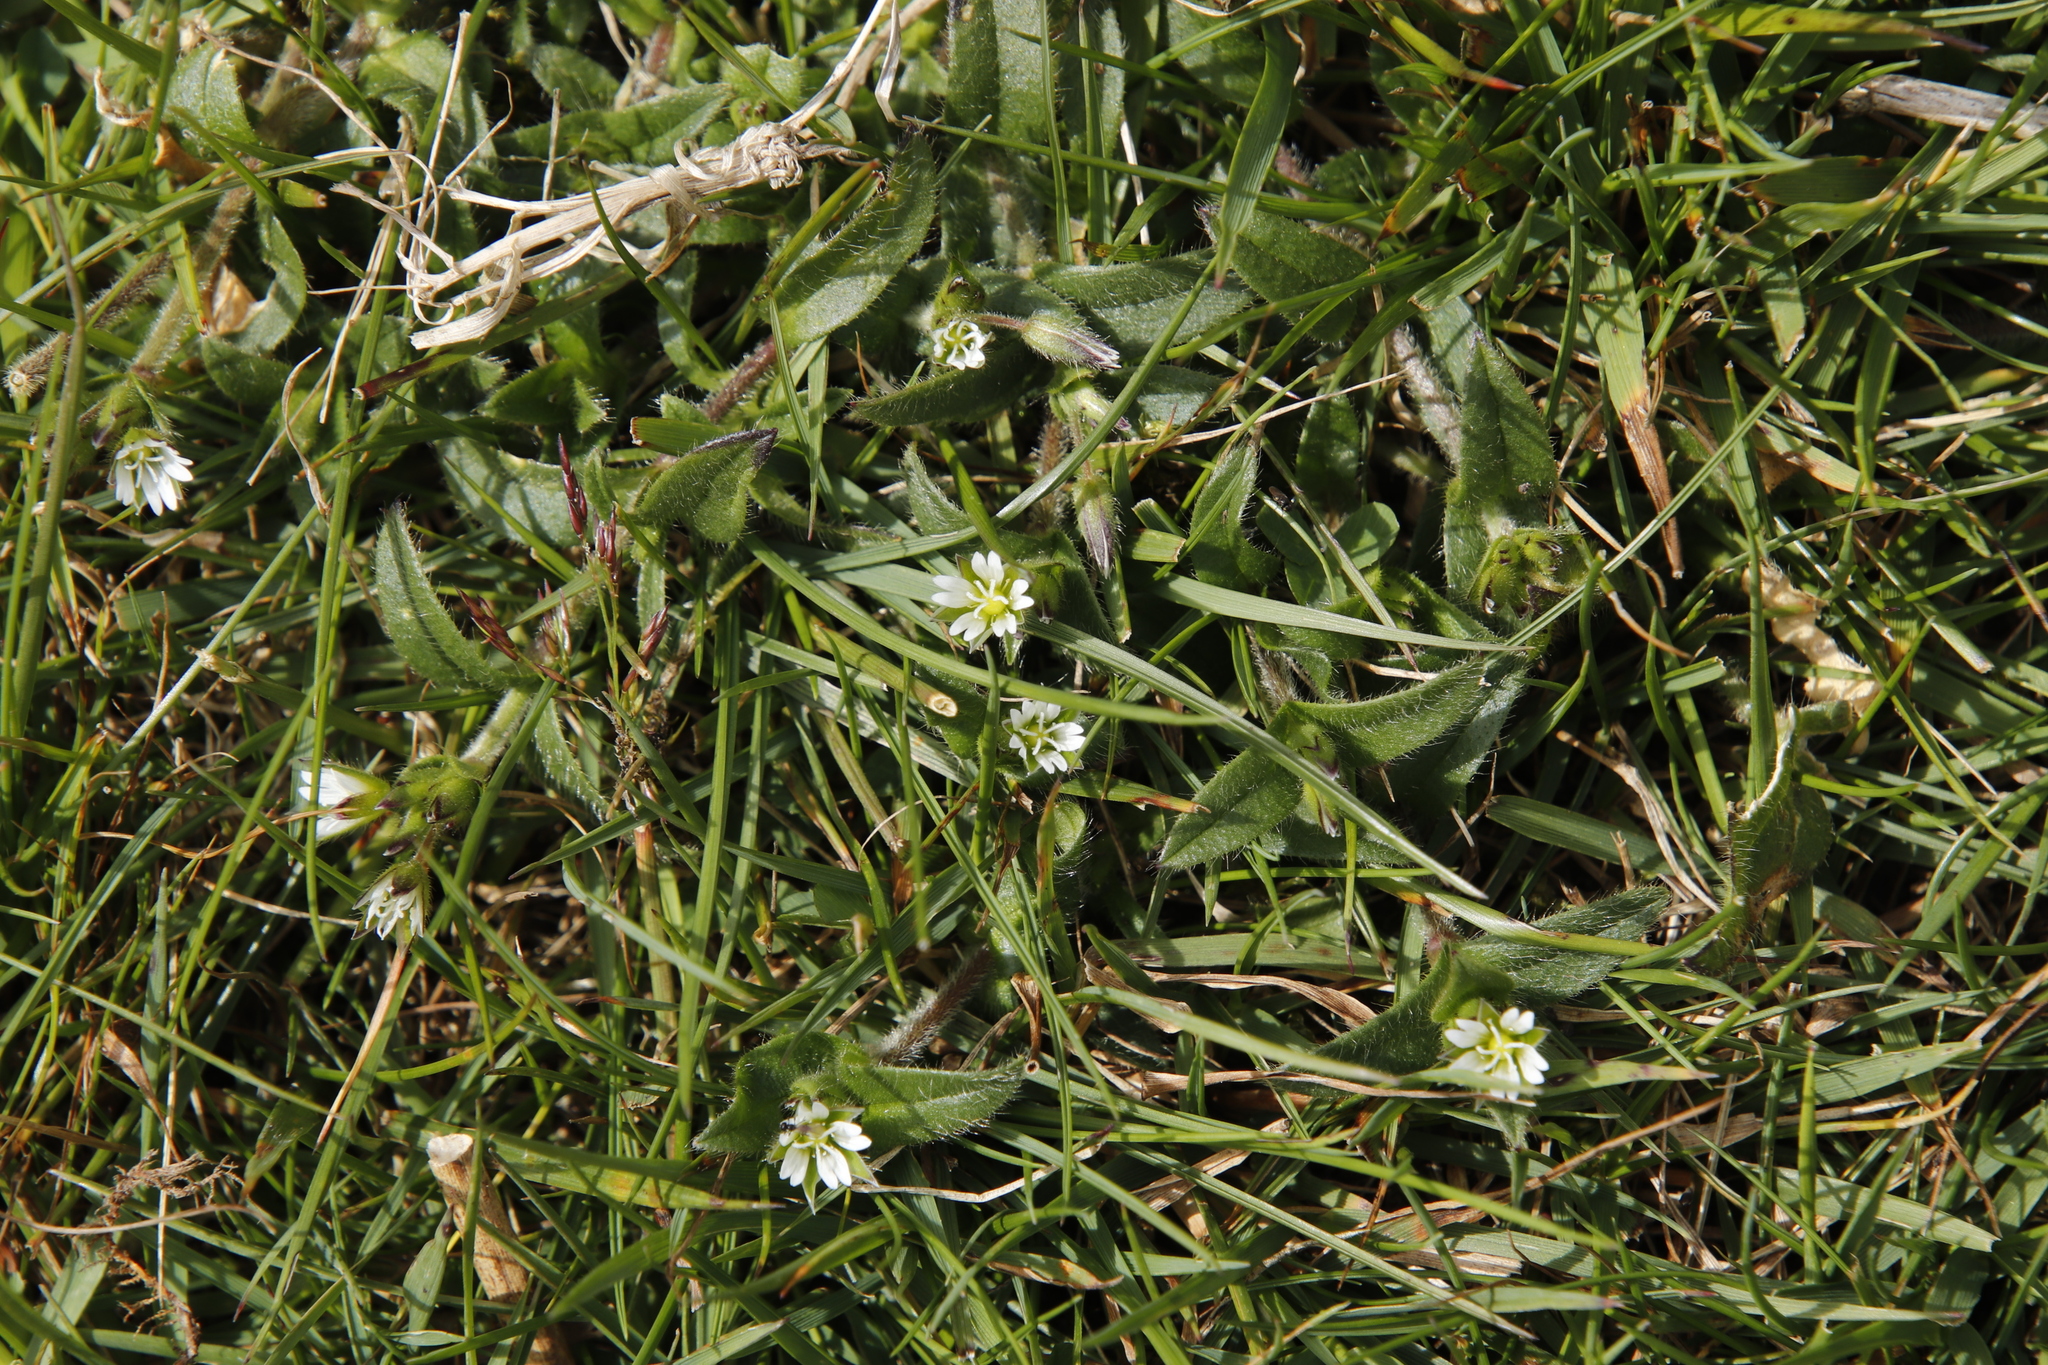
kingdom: Plantae
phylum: Tracheophyta
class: Magnoliopsida
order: Caryophyllales
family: Caryophyllaceae
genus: Cerastium
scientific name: Cerastium fontanum
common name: Common mouse-ear
